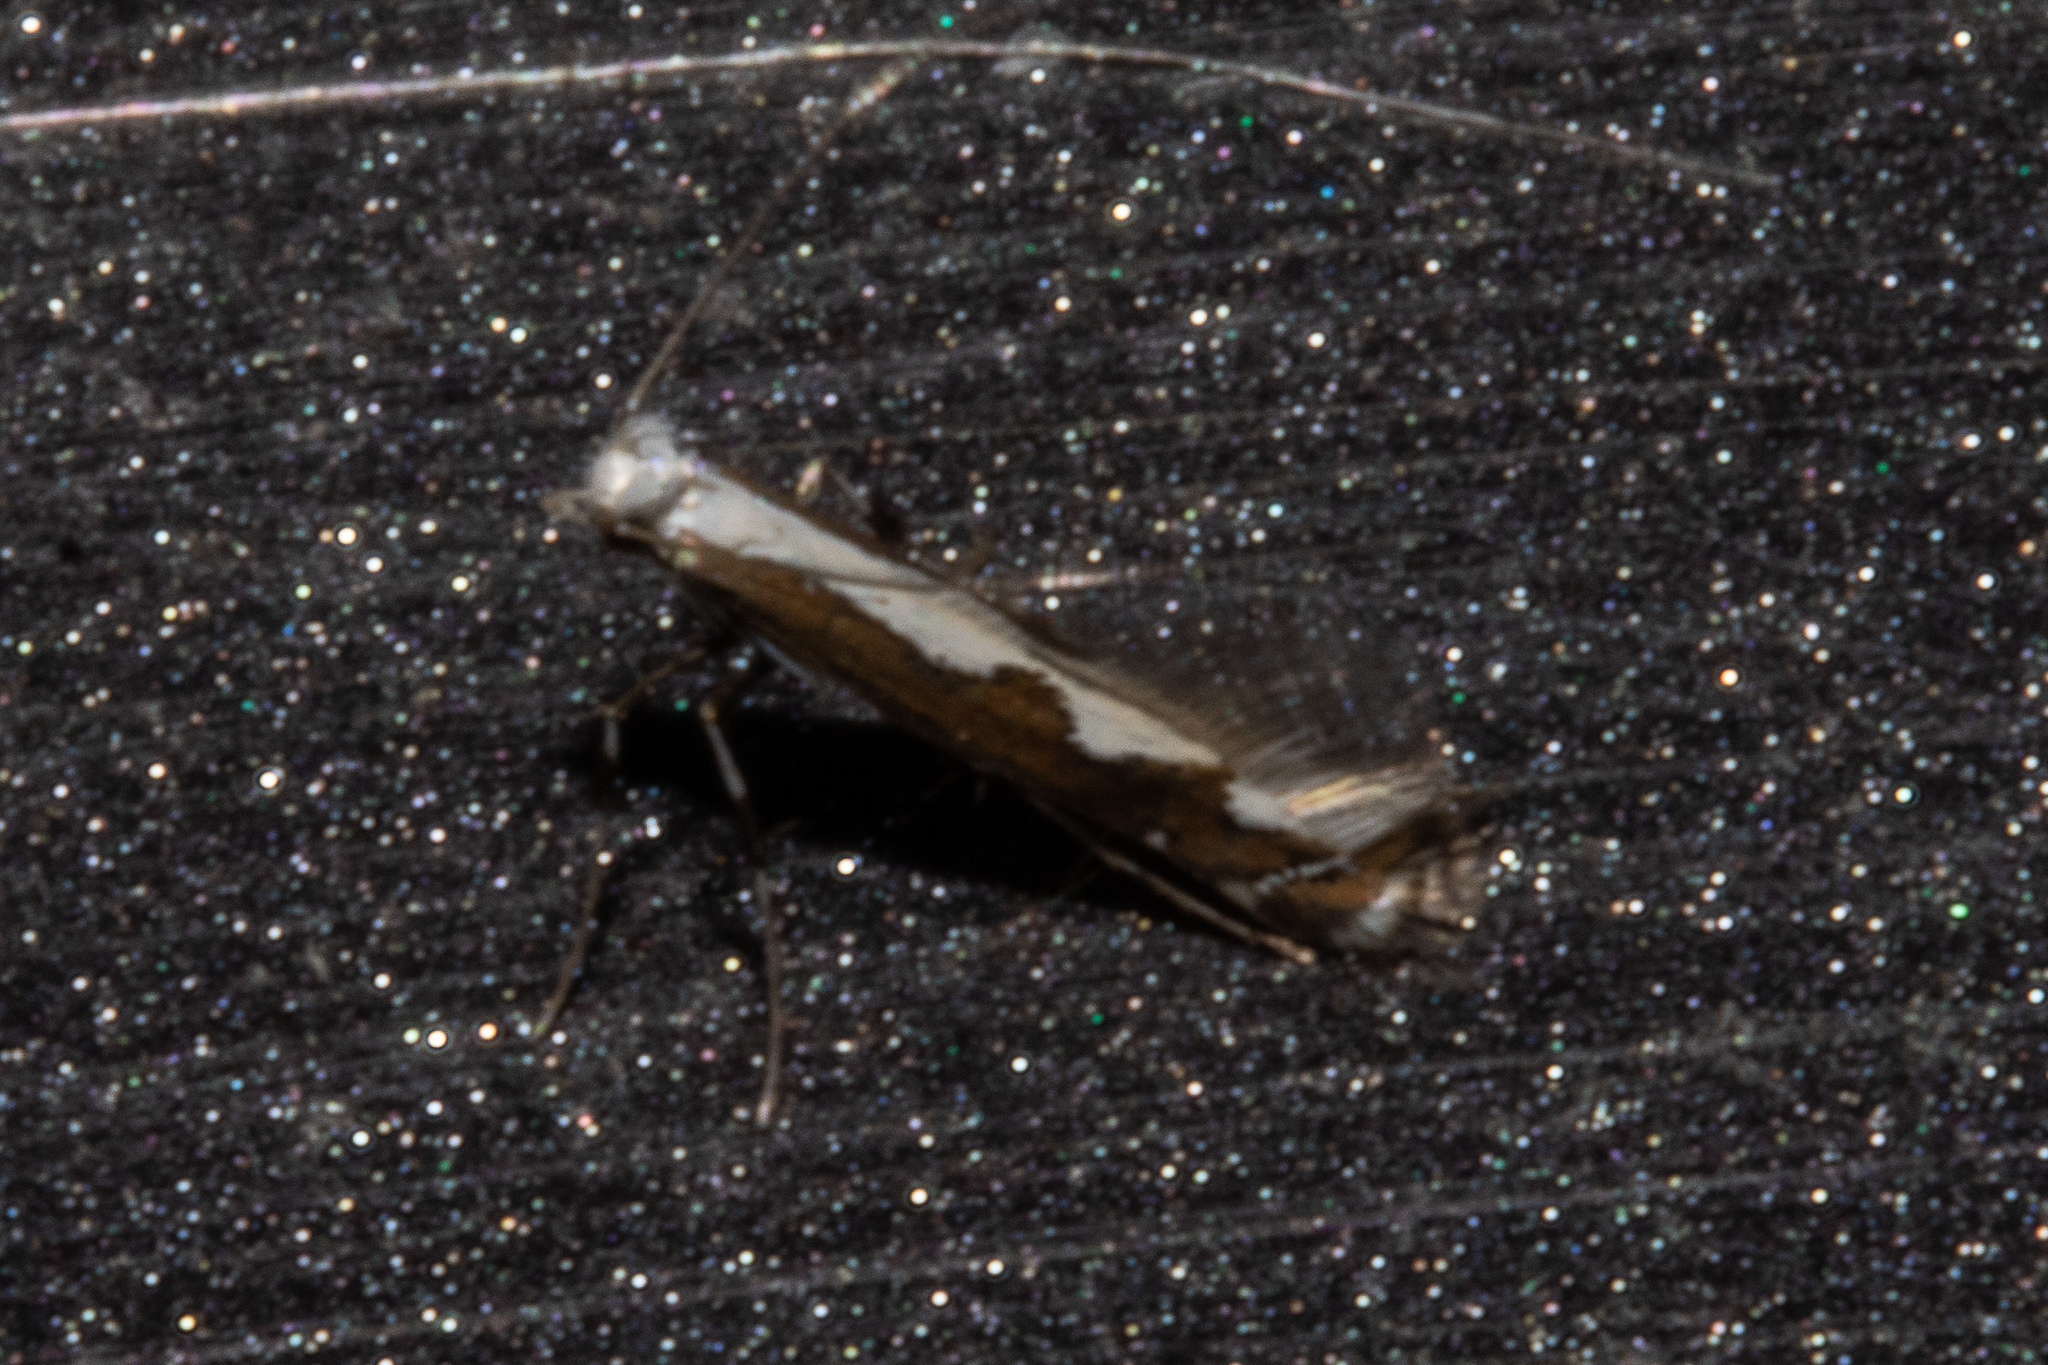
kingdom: Animalia
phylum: Arthropoda
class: Insecta
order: Lepidoptera
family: Gracillariidae
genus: Dialectica
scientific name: Dialectica scalariella
